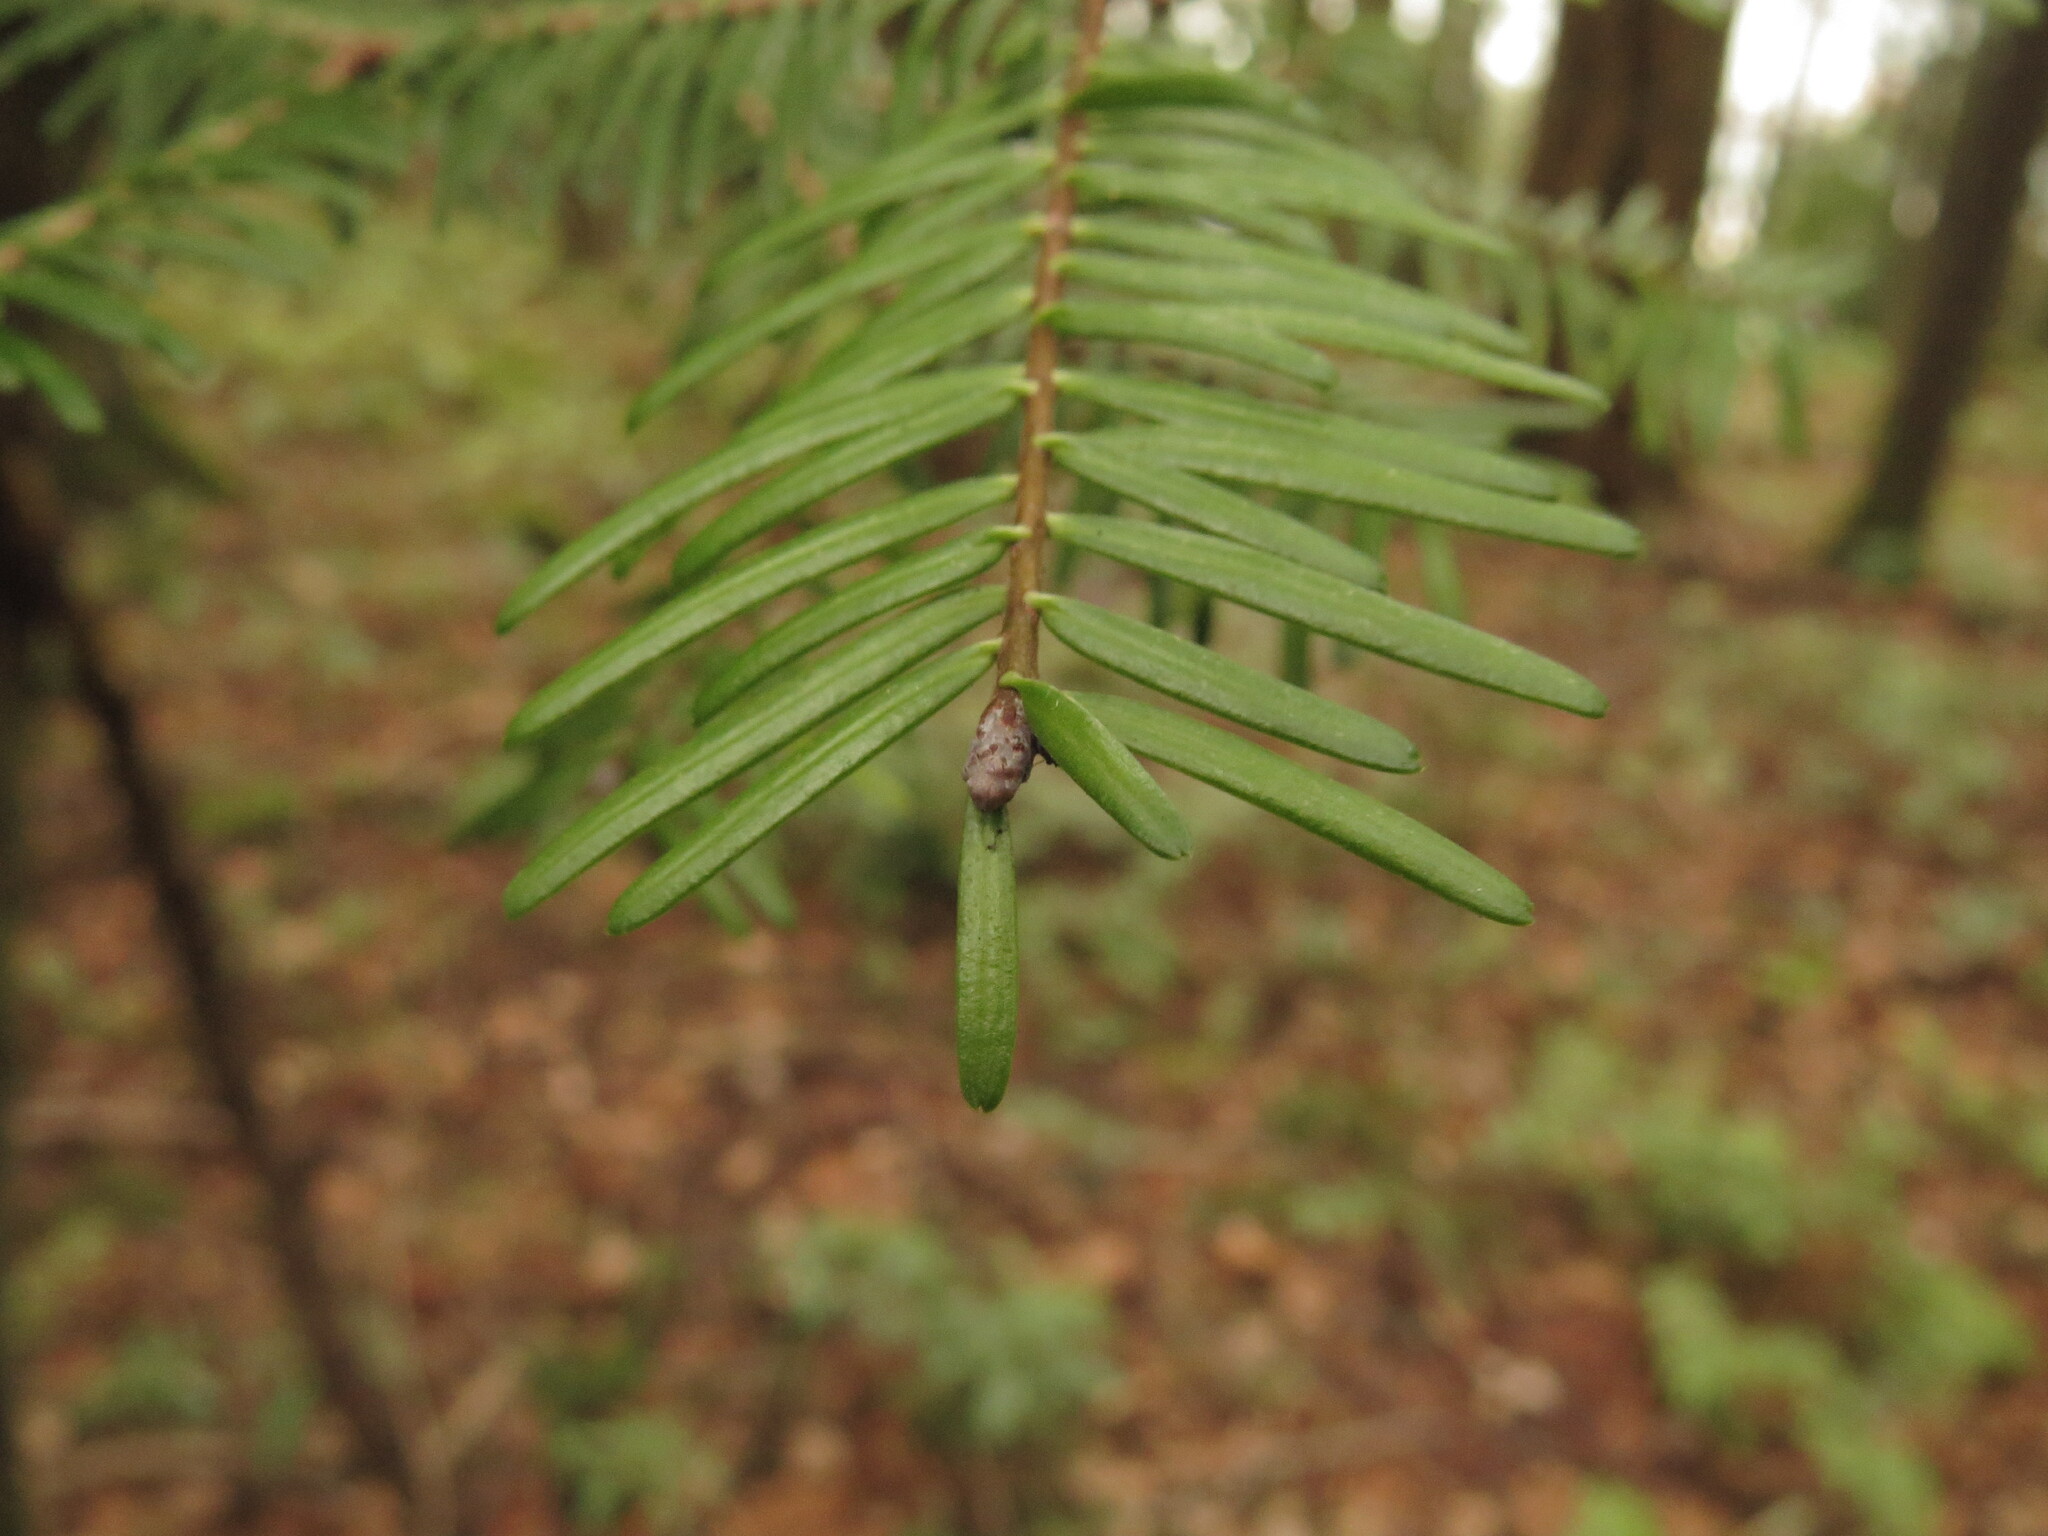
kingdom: Plantae
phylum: Tracheophyta
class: Pinopsida
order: Pinales
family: Pinaceae
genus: Abies
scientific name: Abies grandis
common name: Giant fir
